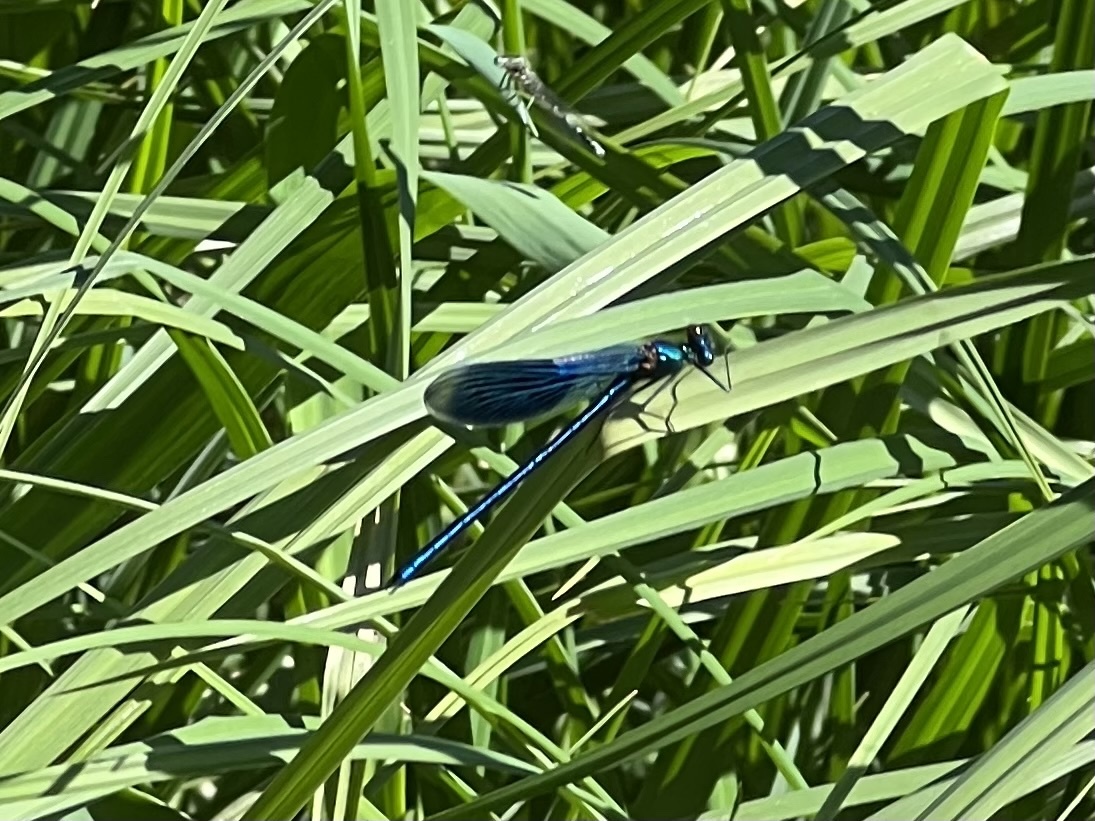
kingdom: Animalia
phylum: Arthropoda
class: Insecta
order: Odonata
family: Calopterygidae
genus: Calopteryx
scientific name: Calopteryx splendens
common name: Banded demoiselle
